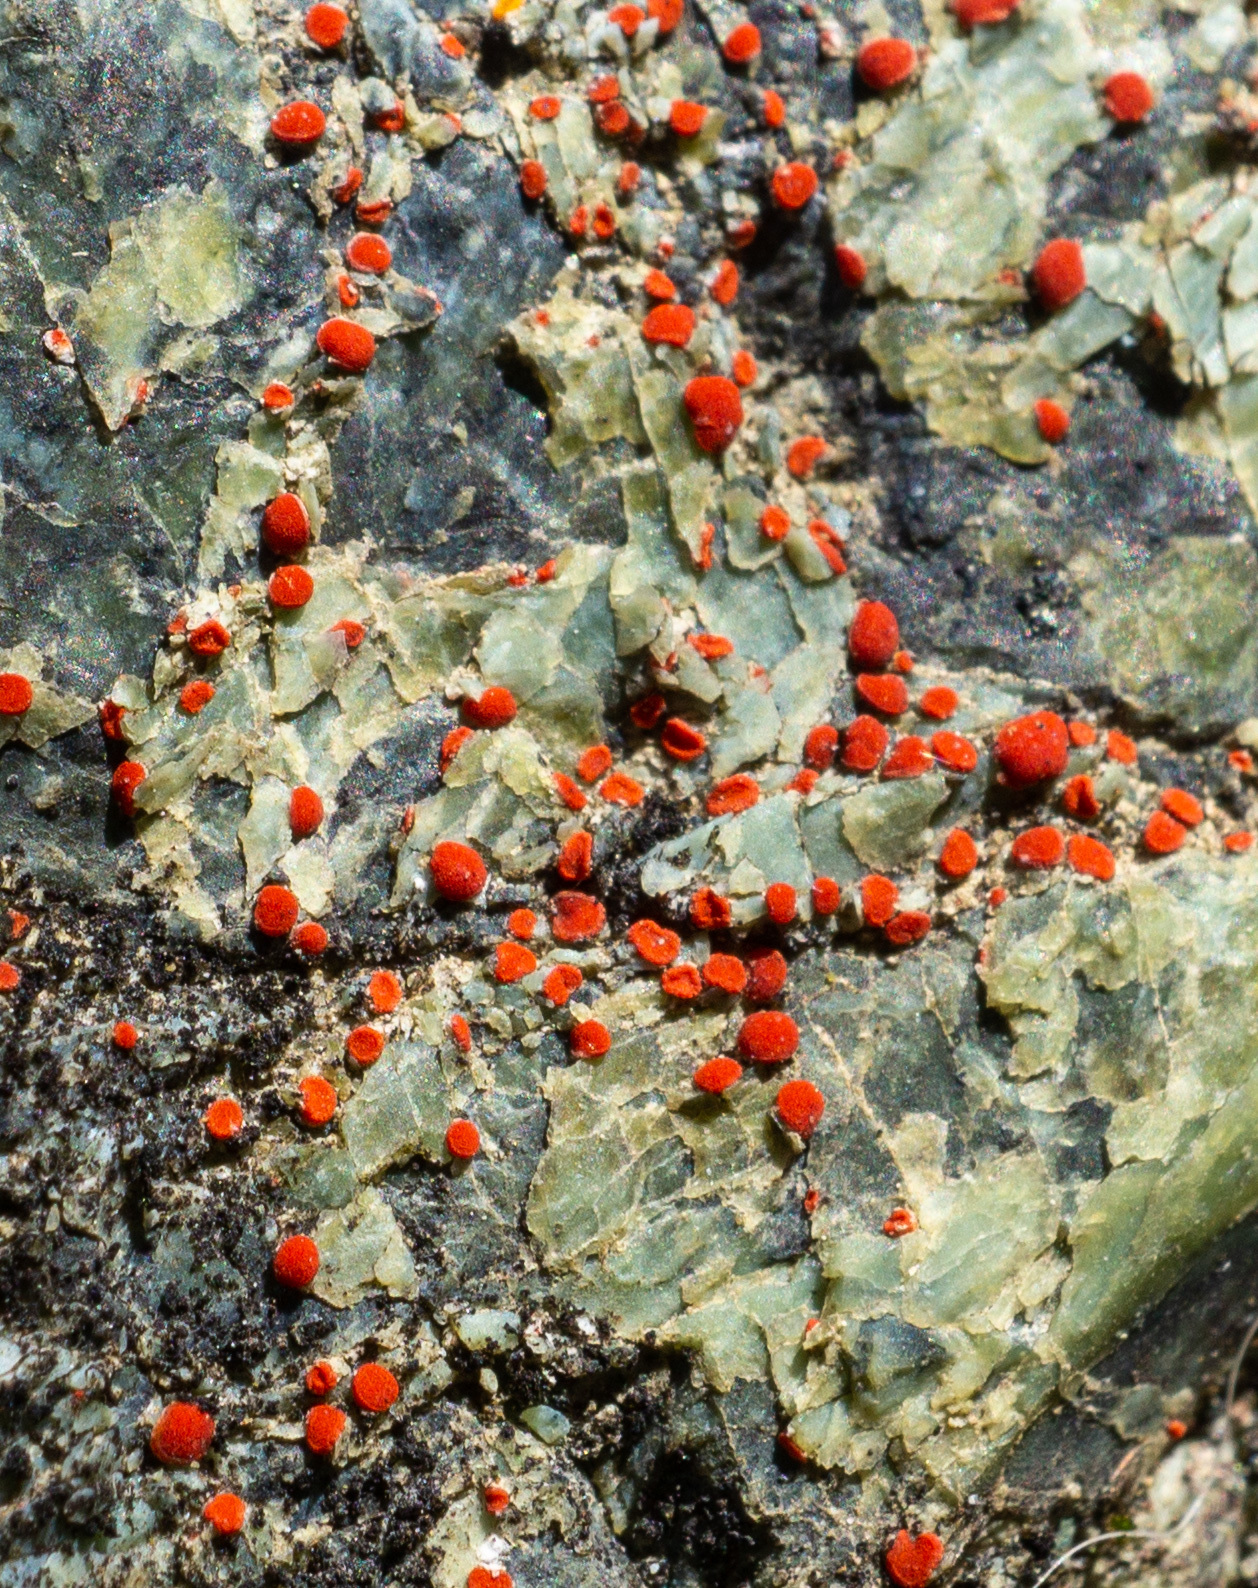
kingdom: Fungi
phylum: Ascomycota
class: Lecanoromycetes
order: Teloschistales
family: Teloschistaceae
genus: Tomnashia
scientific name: Tomnashia luteominia
